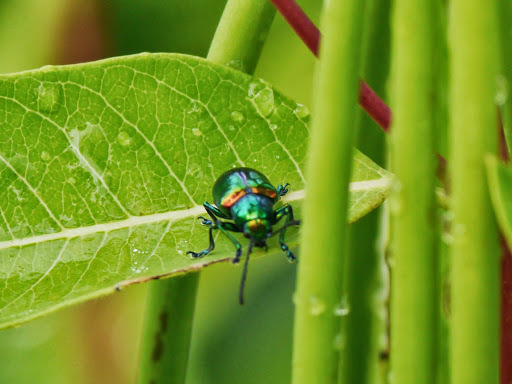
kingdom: Animalia
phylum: Arthropoda
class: Insecta
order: Coleoptera
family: Chrysomelidae
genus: Chrysochus
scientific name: Chrysochus auratus
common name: Dogbane leaf beetle
